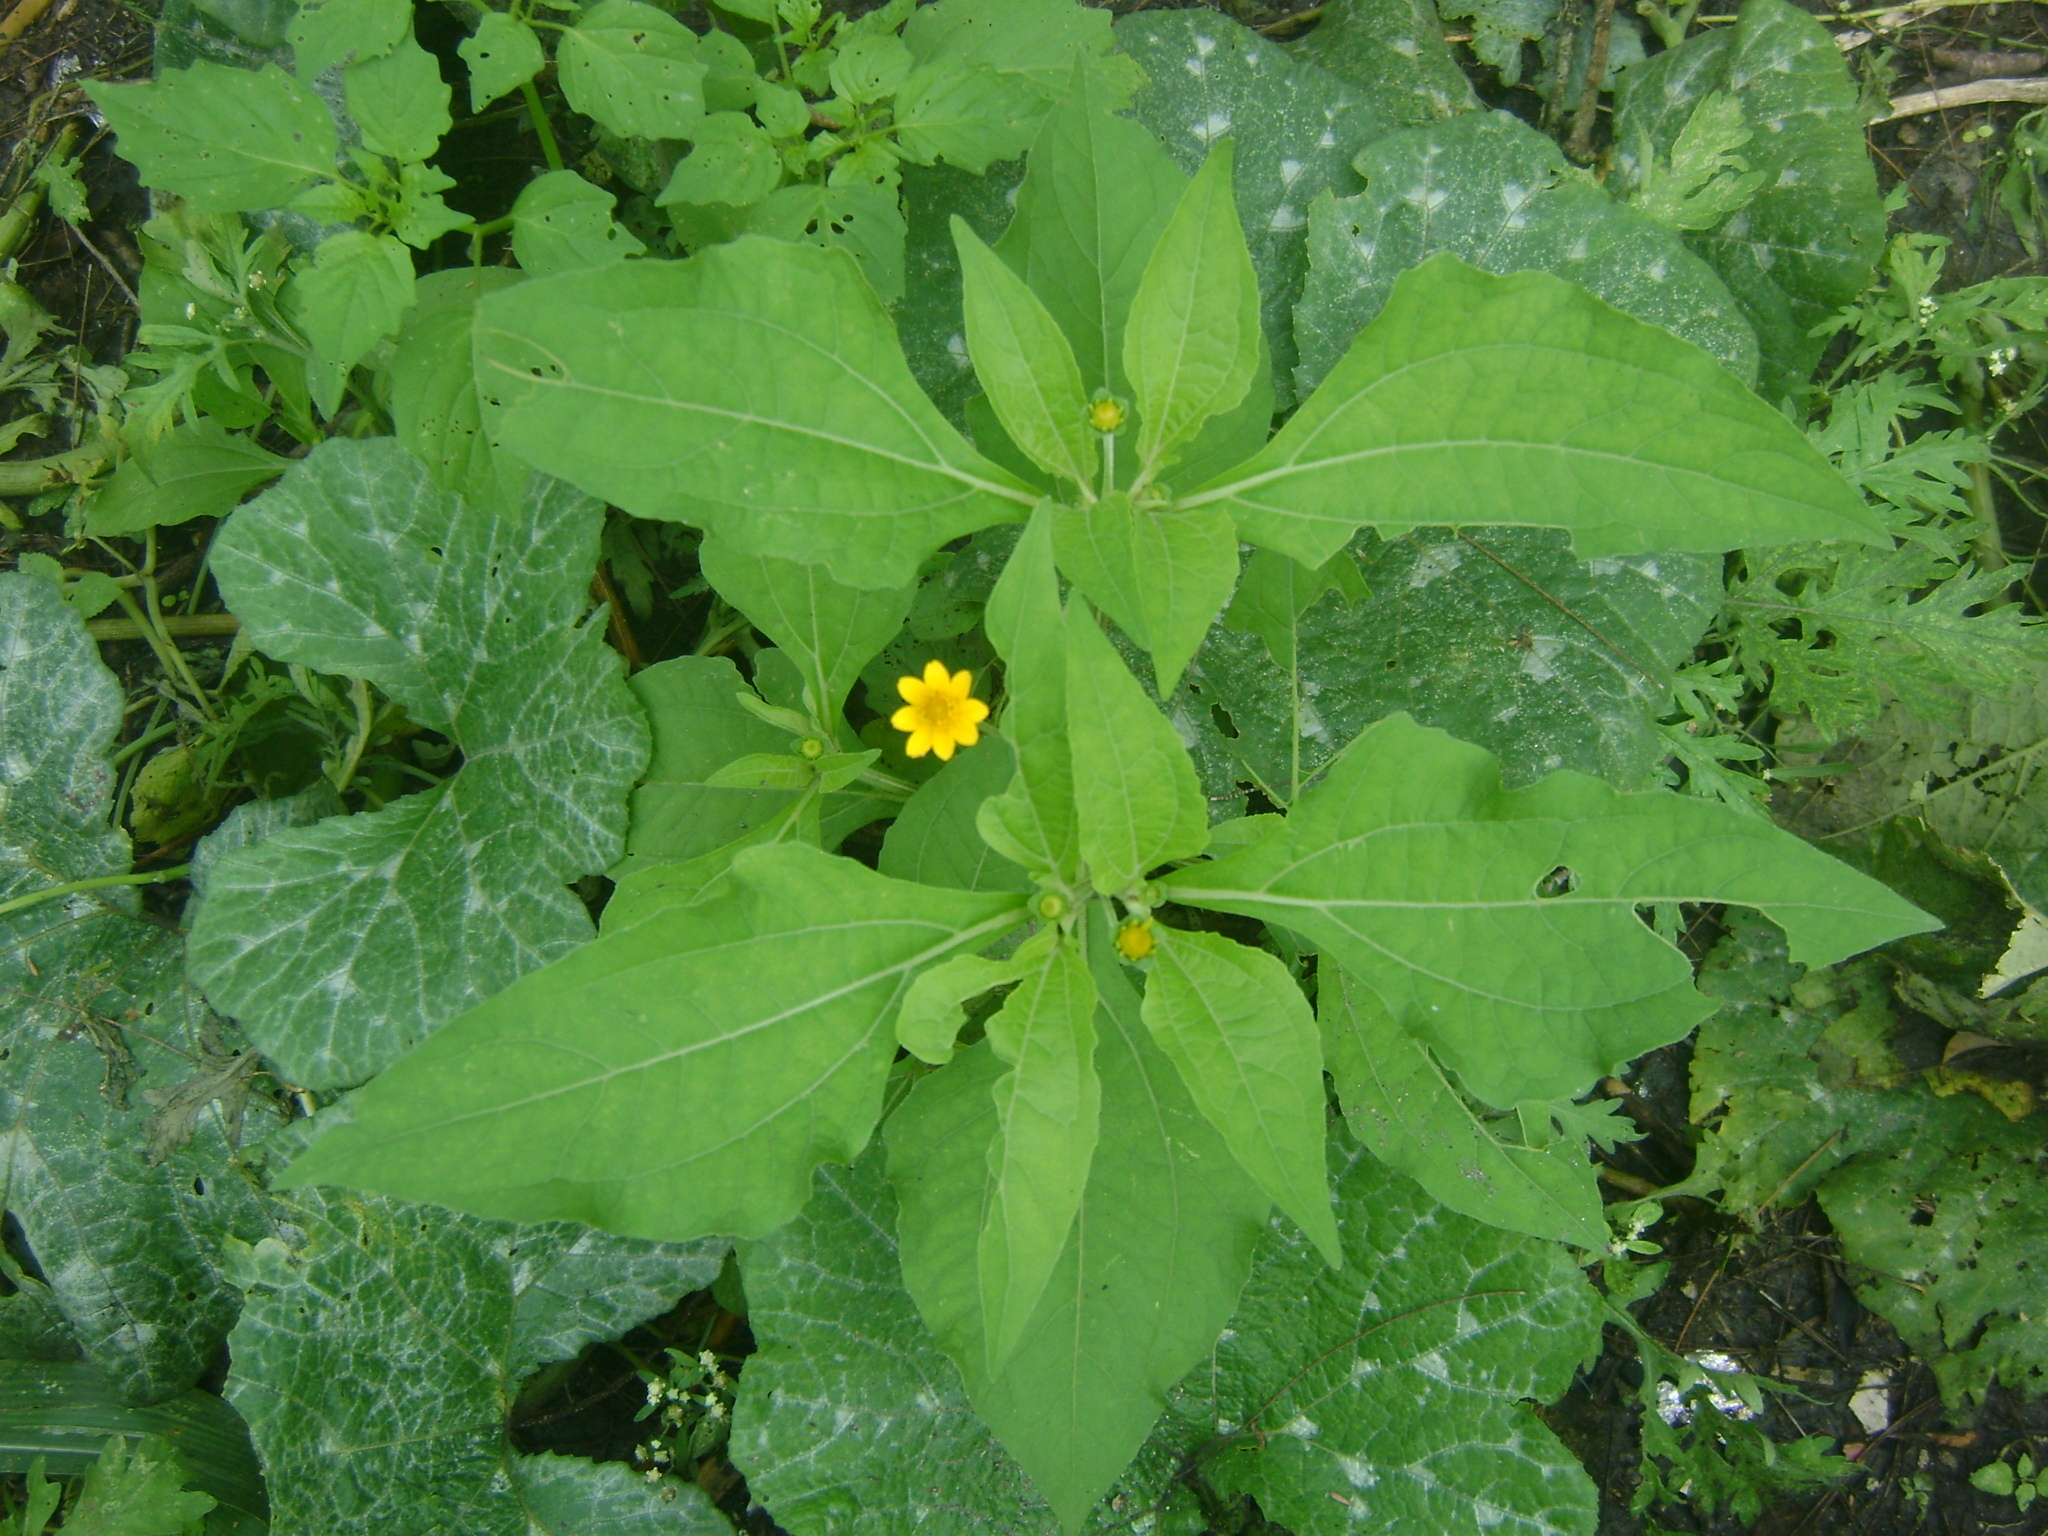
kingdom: Plantae
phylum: Tracheophyta
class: Magnoliopsida
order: Asterales
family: Asteraceae
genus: Melampodium
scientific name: Melampodium divaricatum
